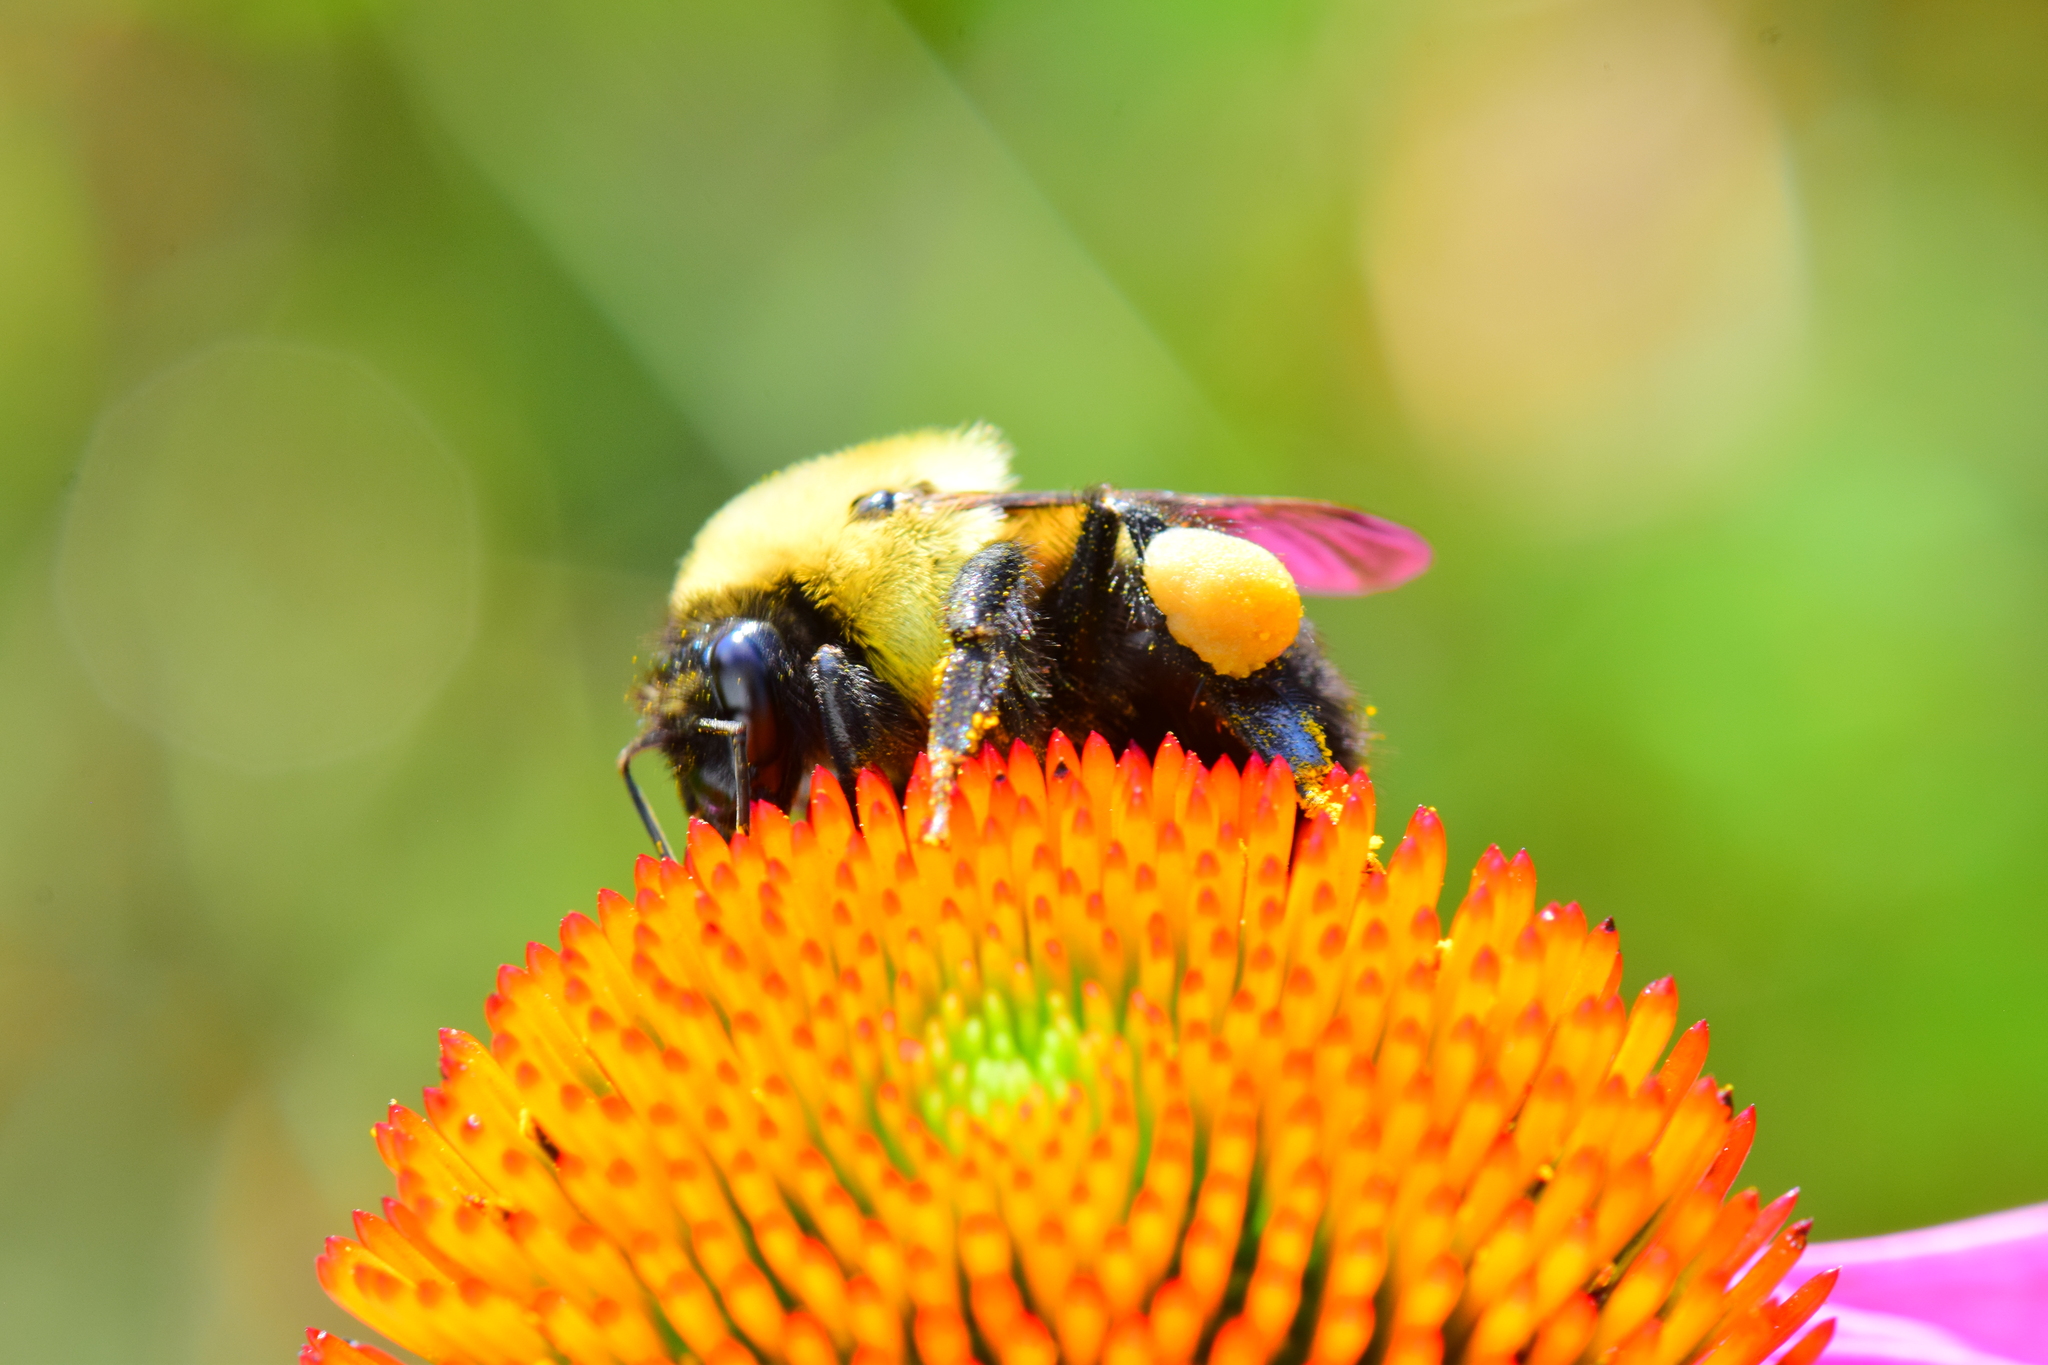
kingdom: Animalia
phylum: Arthropoda
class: Insecta
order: Hymenoptera
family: Apidae
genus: Bombus
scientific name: Bombus griseocollis
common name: Brown-belted bumble bee
